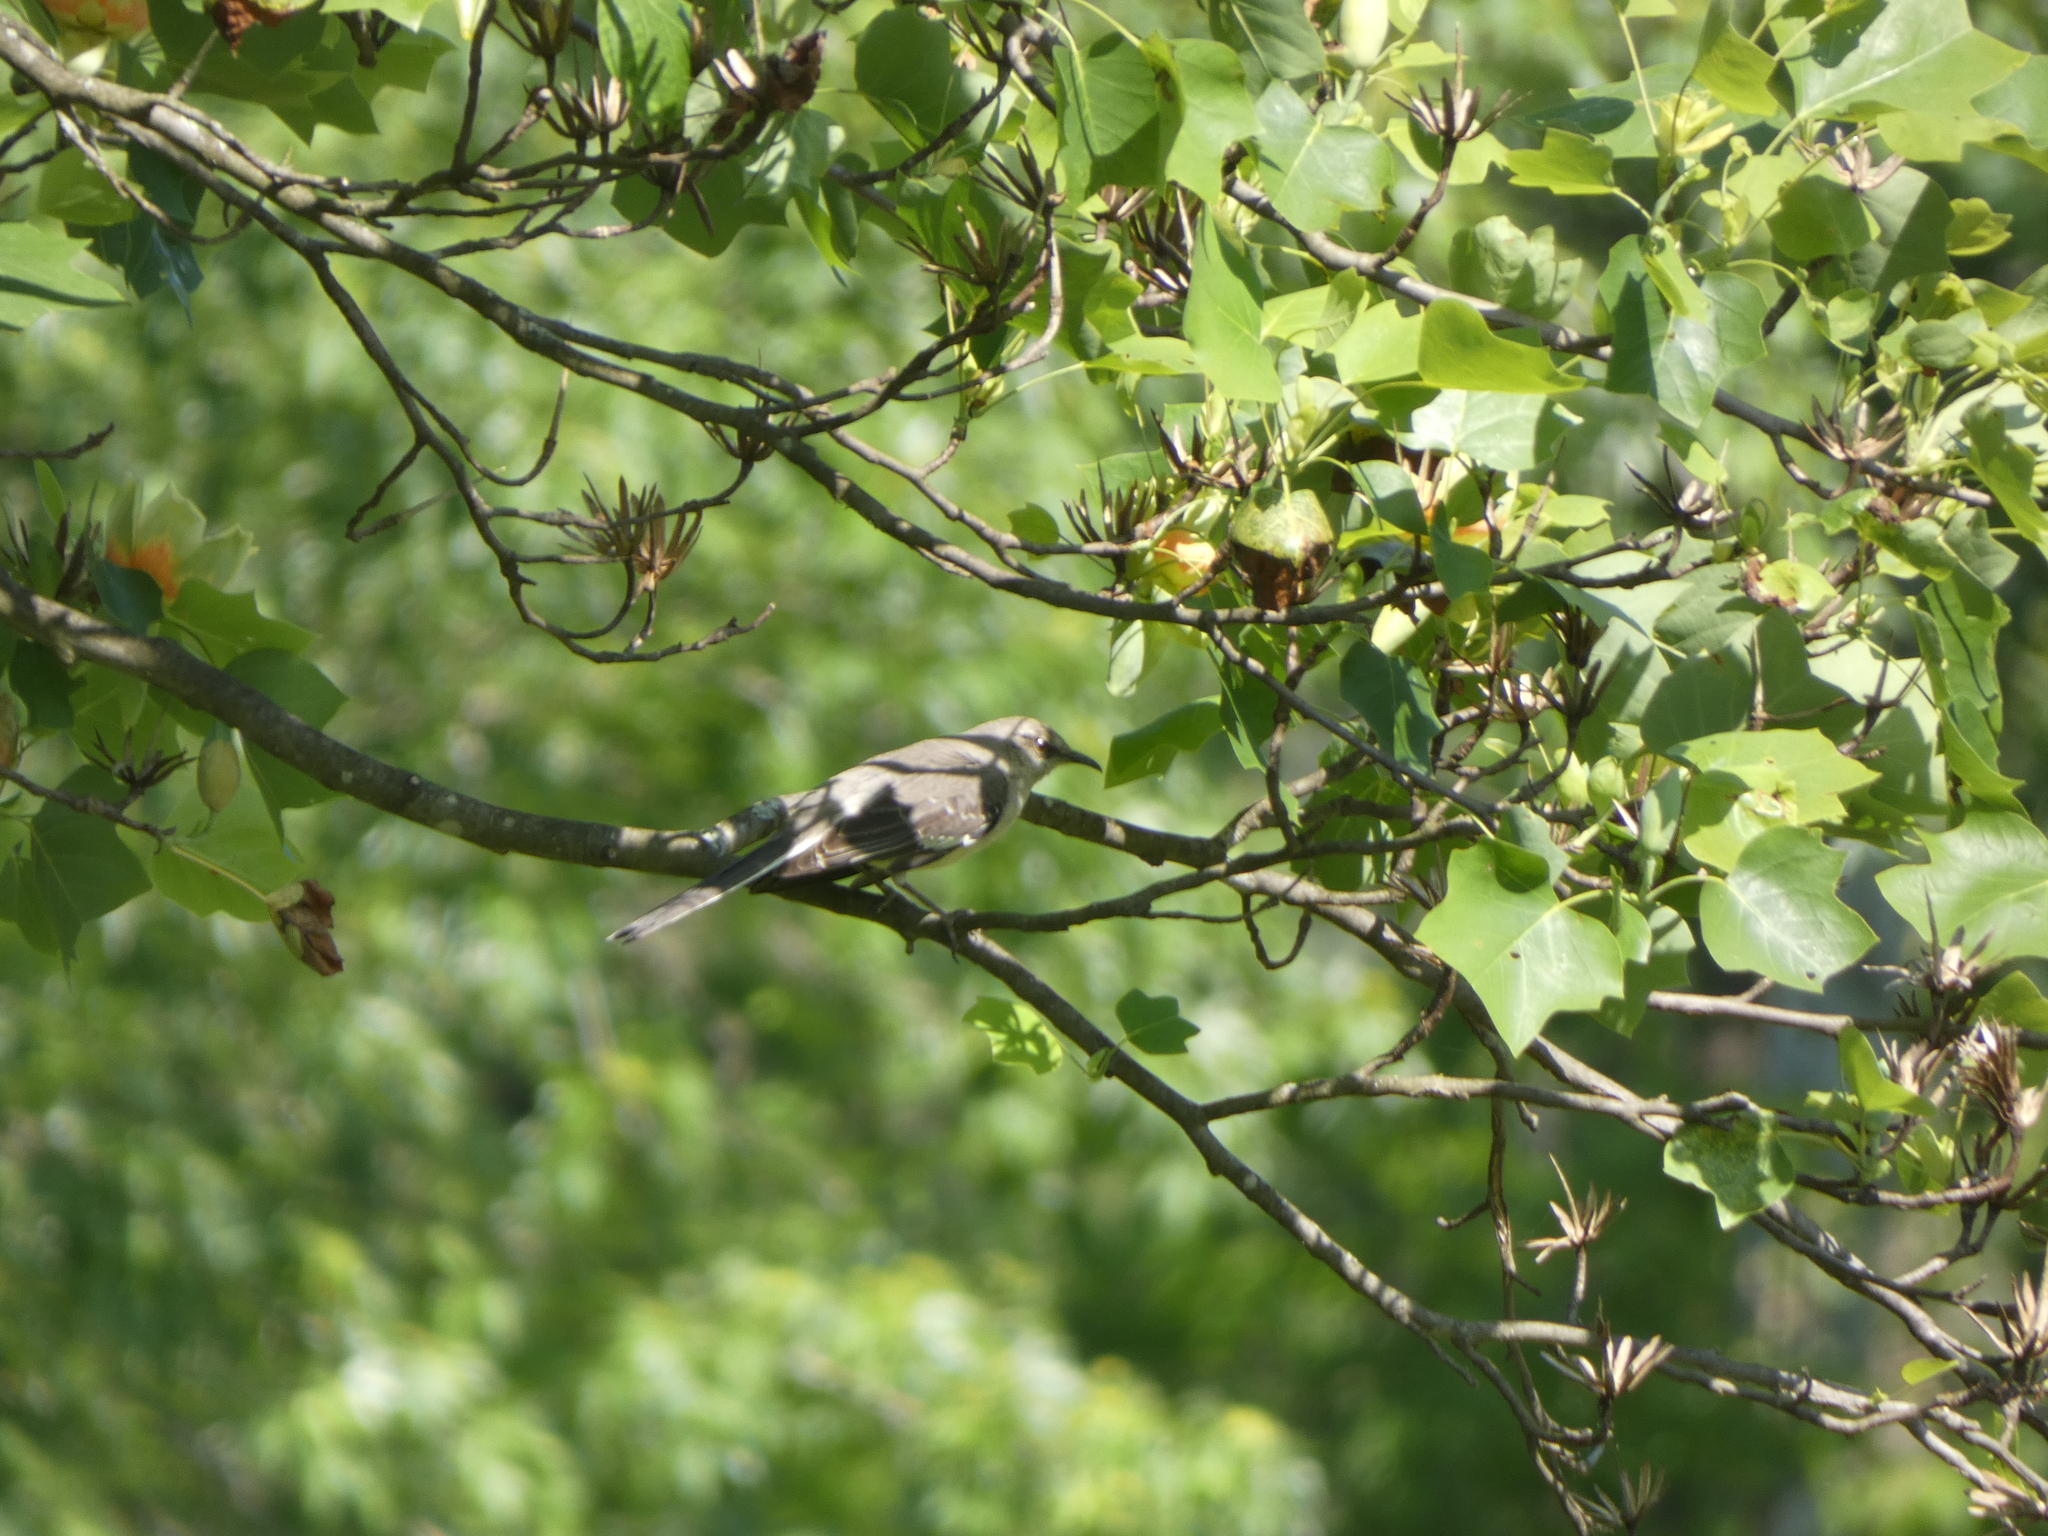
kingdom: Animalia
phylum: Chordata
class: Aves
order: Passeriformes
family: Mimidae
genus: Mimus
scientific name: Mimus polyglottos
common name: Northern mockingbird
